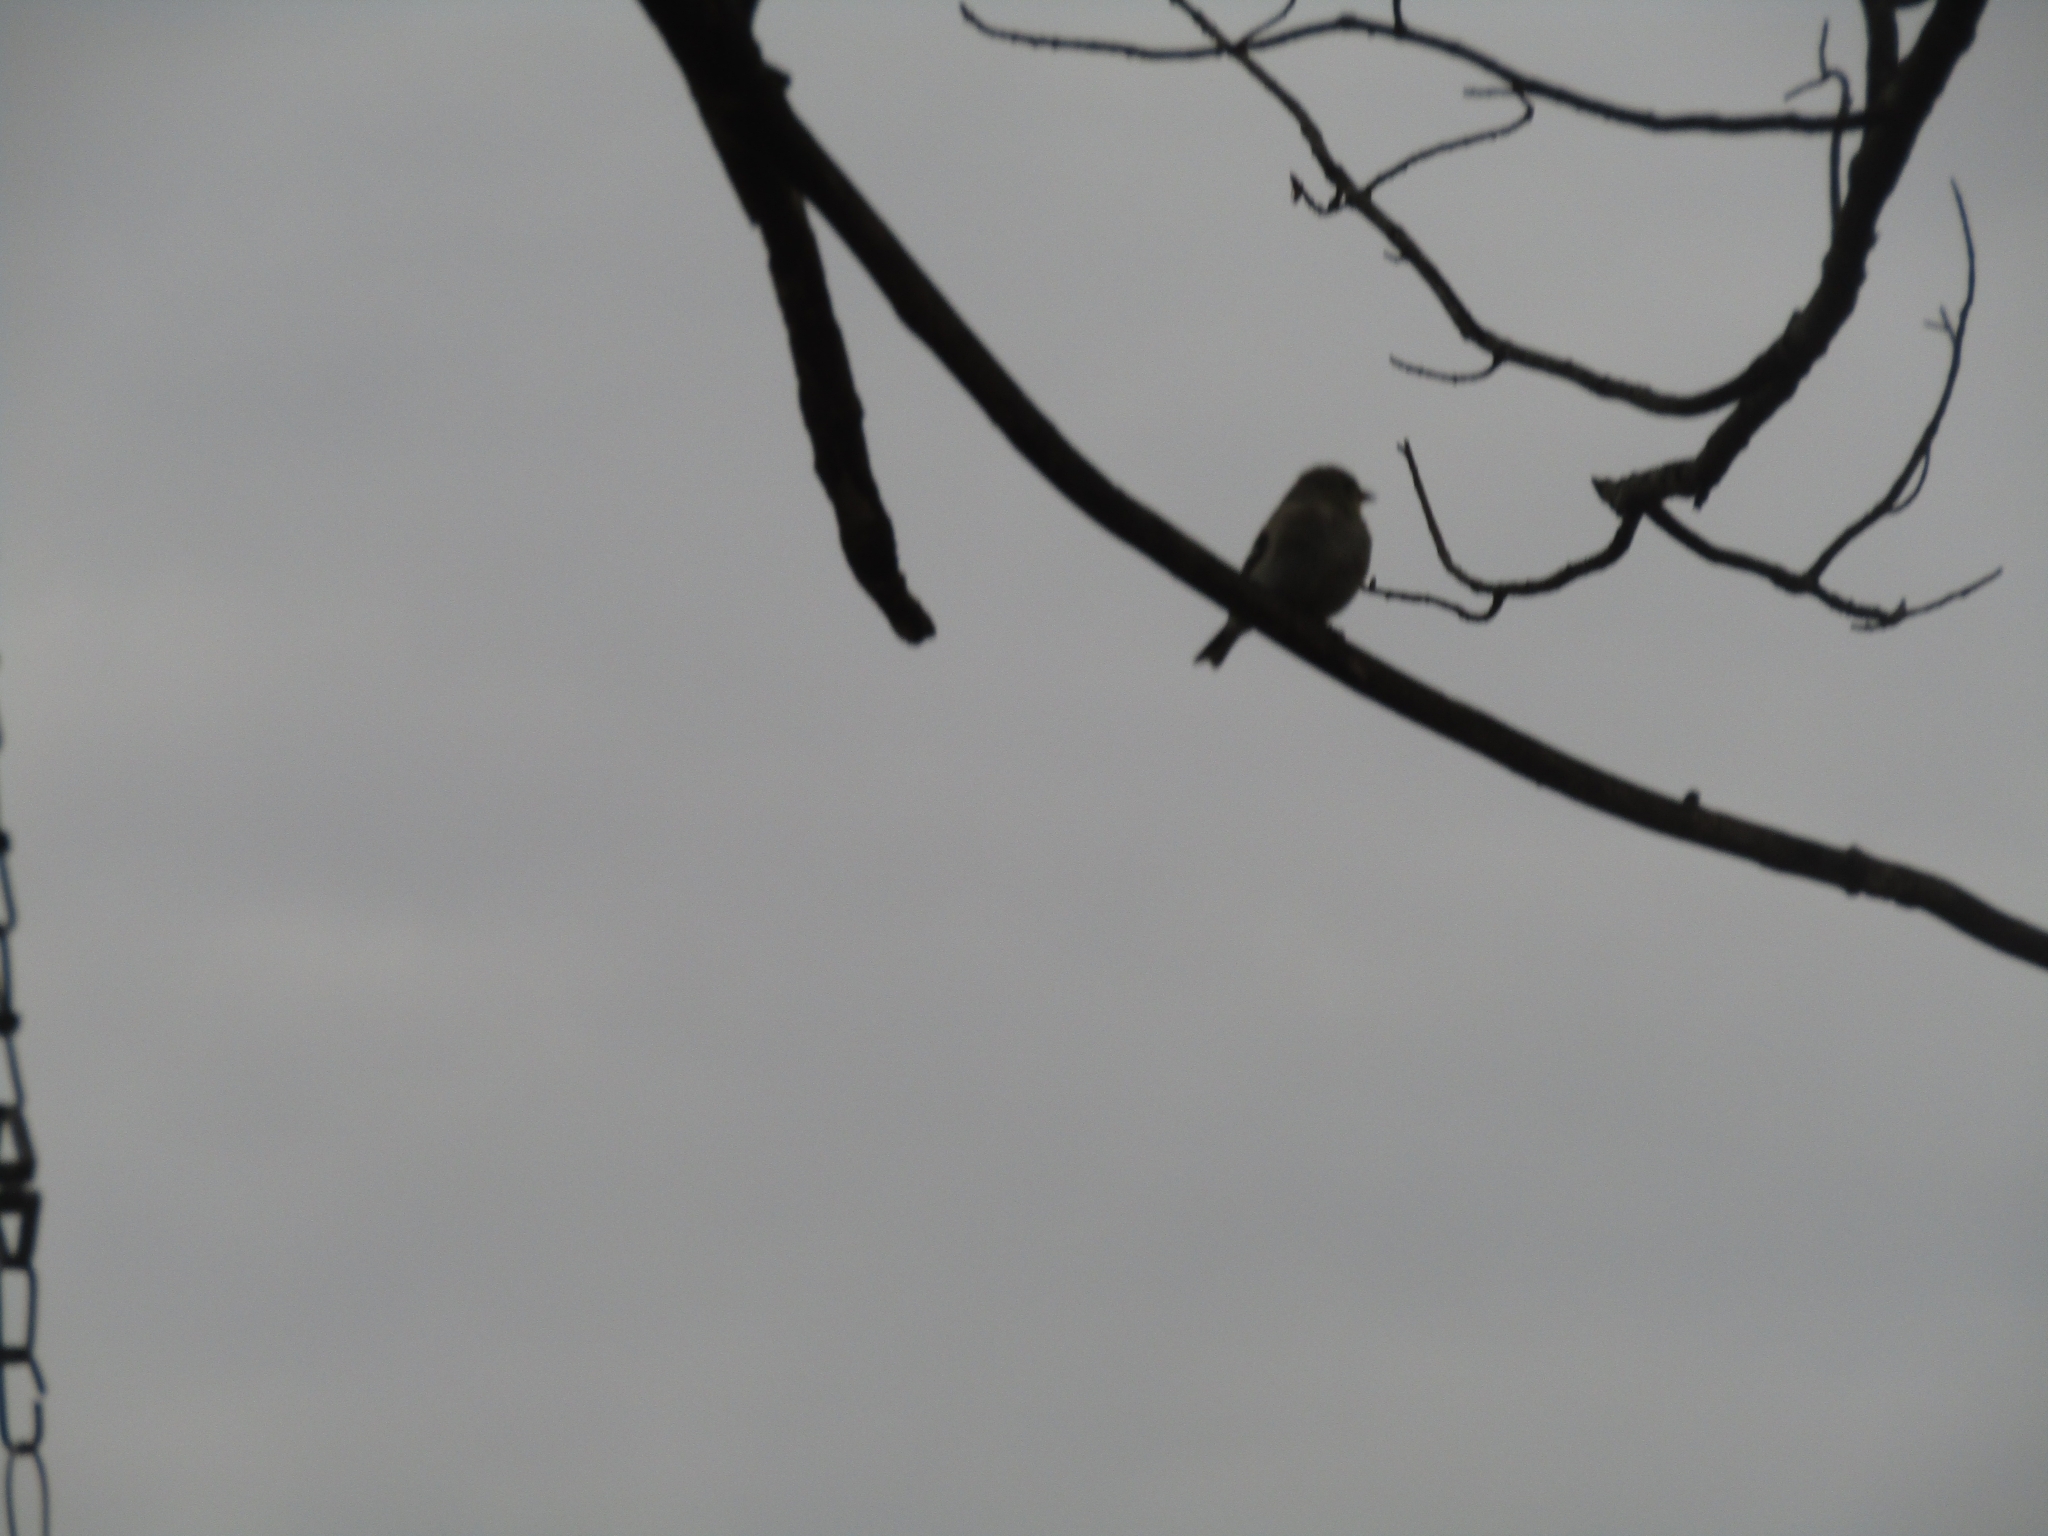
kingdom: Animalia
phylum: Chordata
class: Aves
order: Passeriformes
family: Fringillidae
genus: Spinus
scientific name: Spinus tristis
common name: American goldfinch
